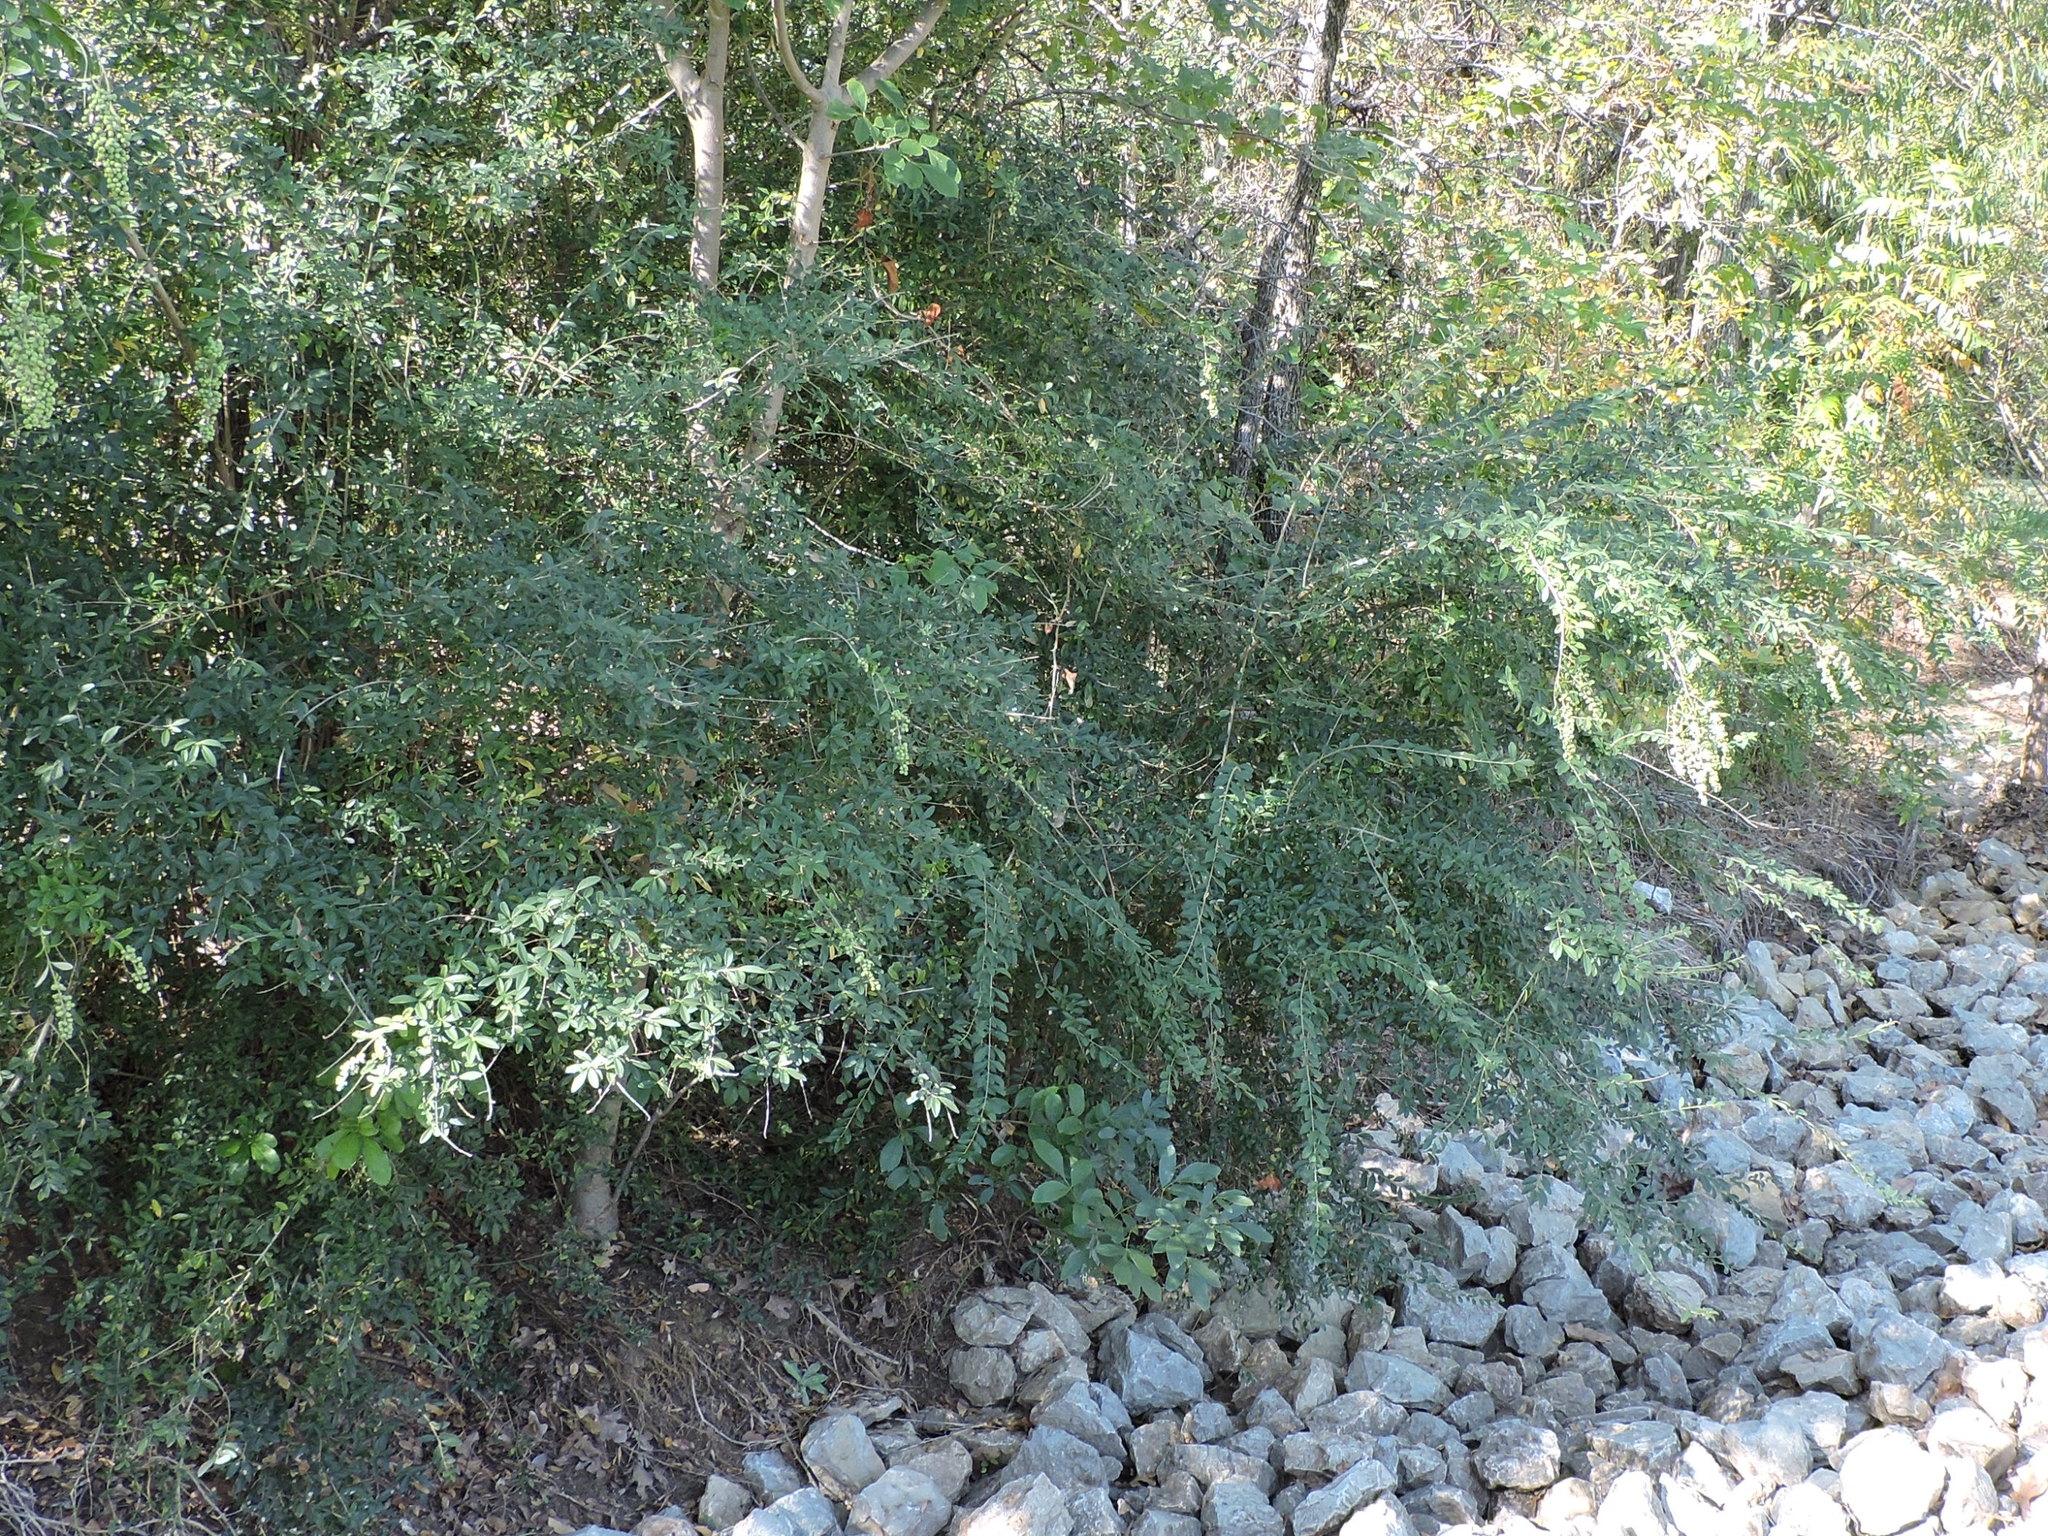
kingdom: Plantae
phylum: Tracheophyta
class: Magnoliopsida
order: Lamiales
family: Oleaceae
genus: Ligustrum
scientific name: Ligustrum quihoui
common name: Waxyleaf privet
